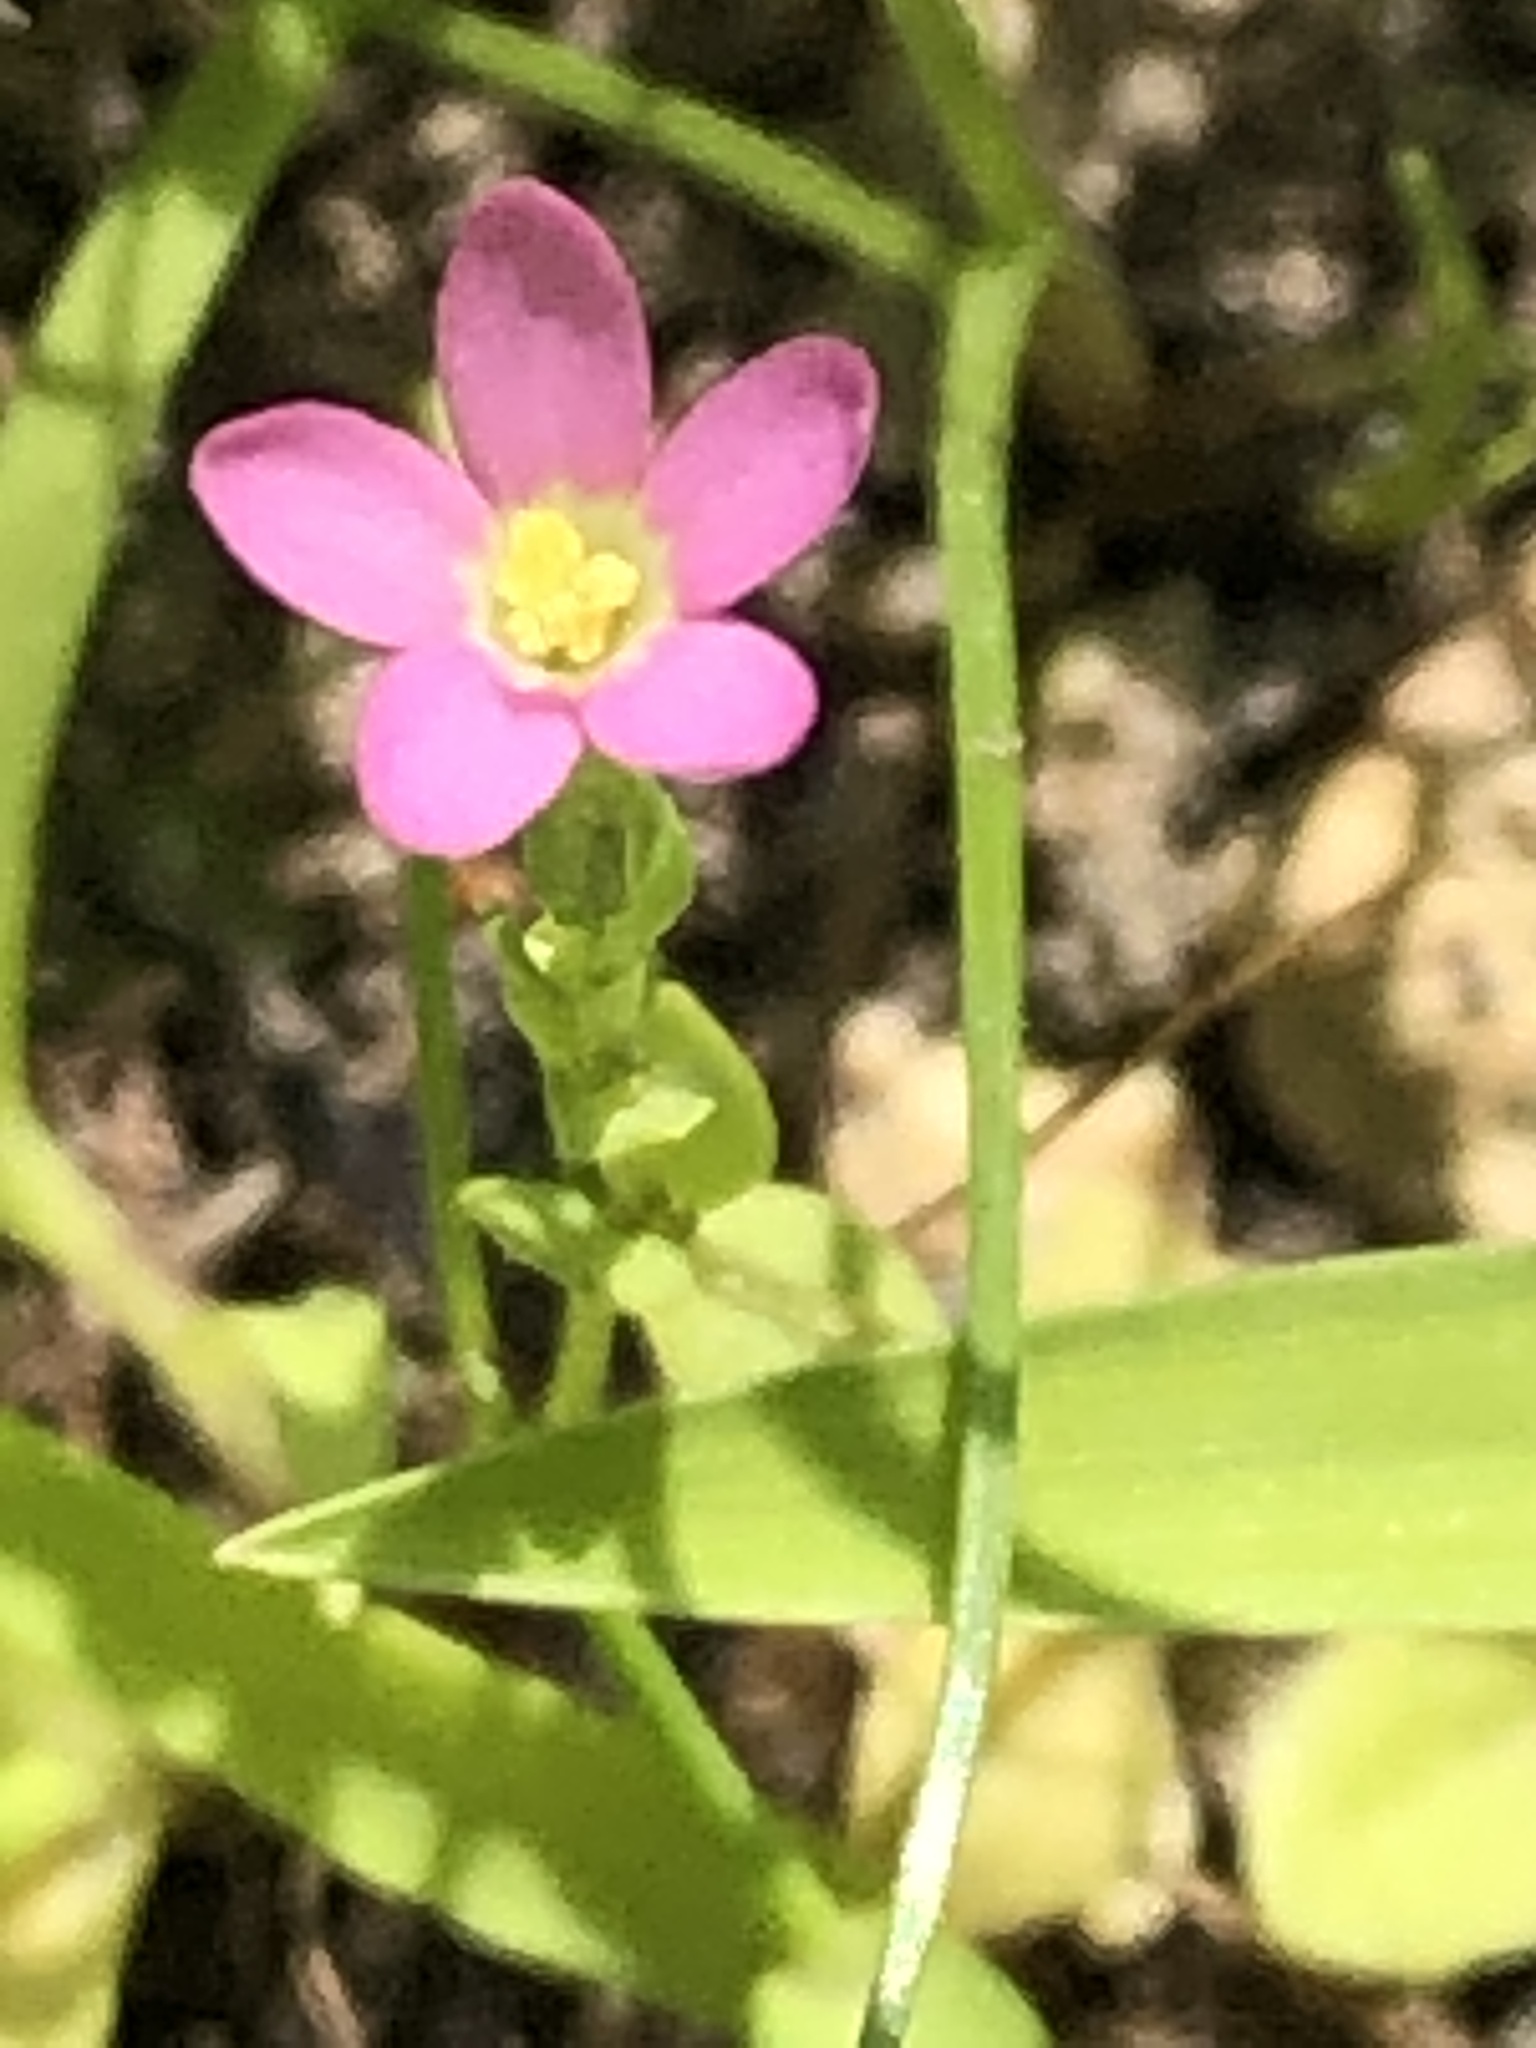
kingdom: Plantae
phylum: Tracheophyta
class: Magnoliopsida
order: Gentianales
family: Gentianaceae
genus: Centaurium
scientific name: Centaurium pulchellum
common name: Lesser centaury
